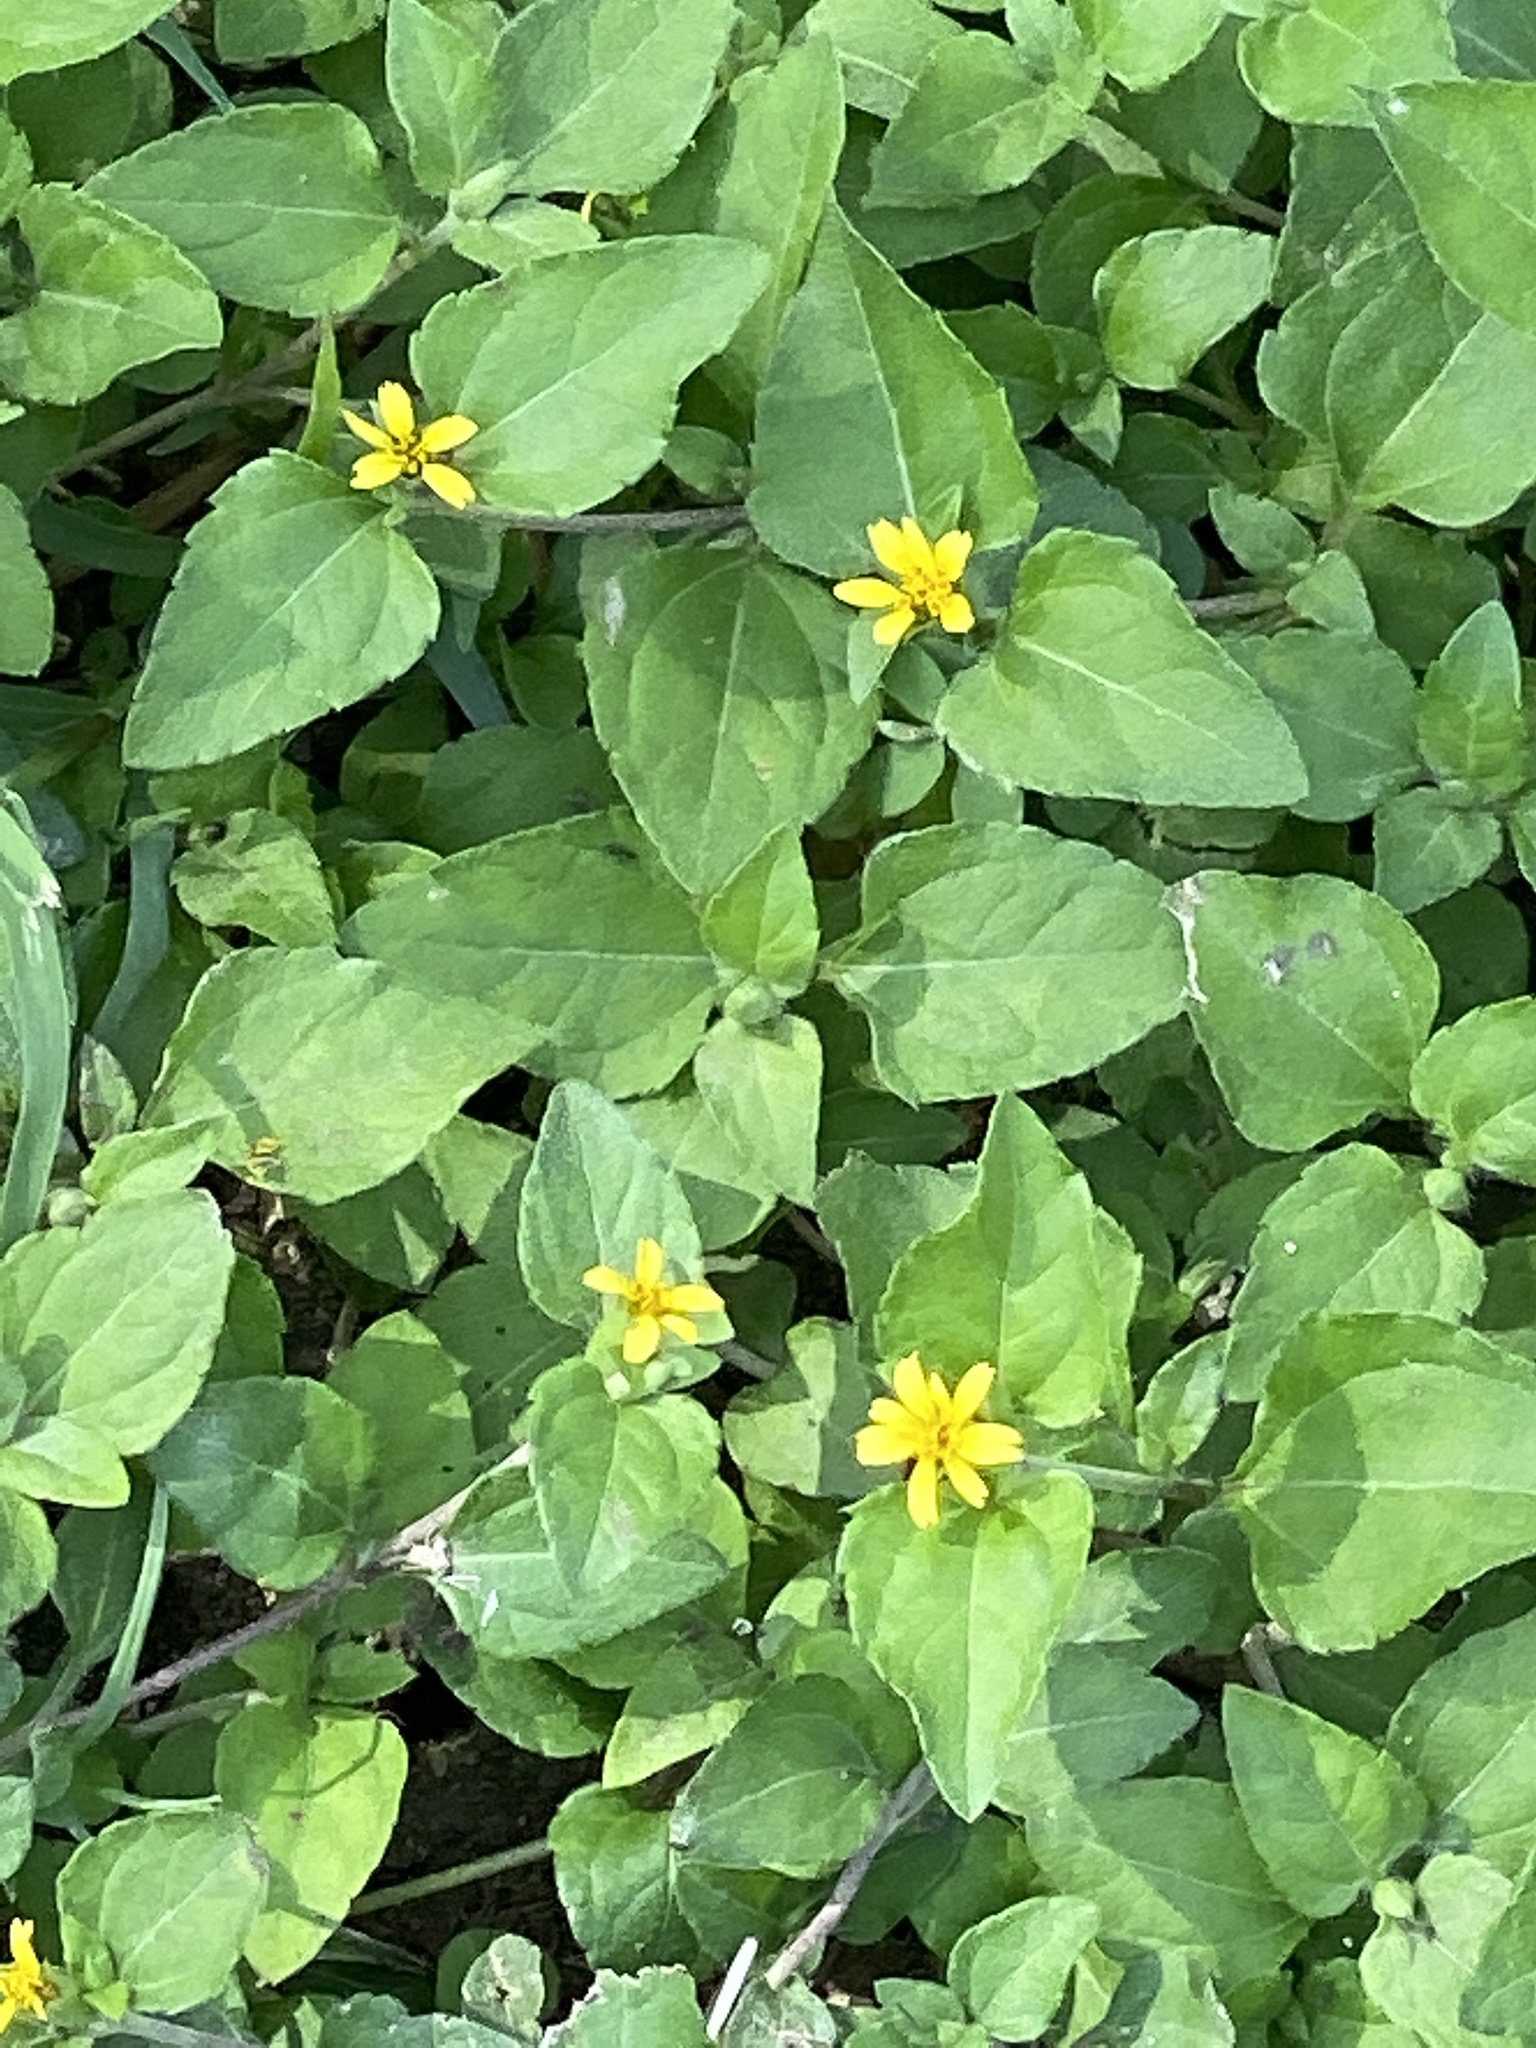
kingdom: Plantae
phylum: Tracheophyta
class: Magnoliopsida
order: Asterales
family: Asteraceae
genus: Calyptocarpus
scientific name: Calyptocarpus vialis
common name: Straggler daisy
